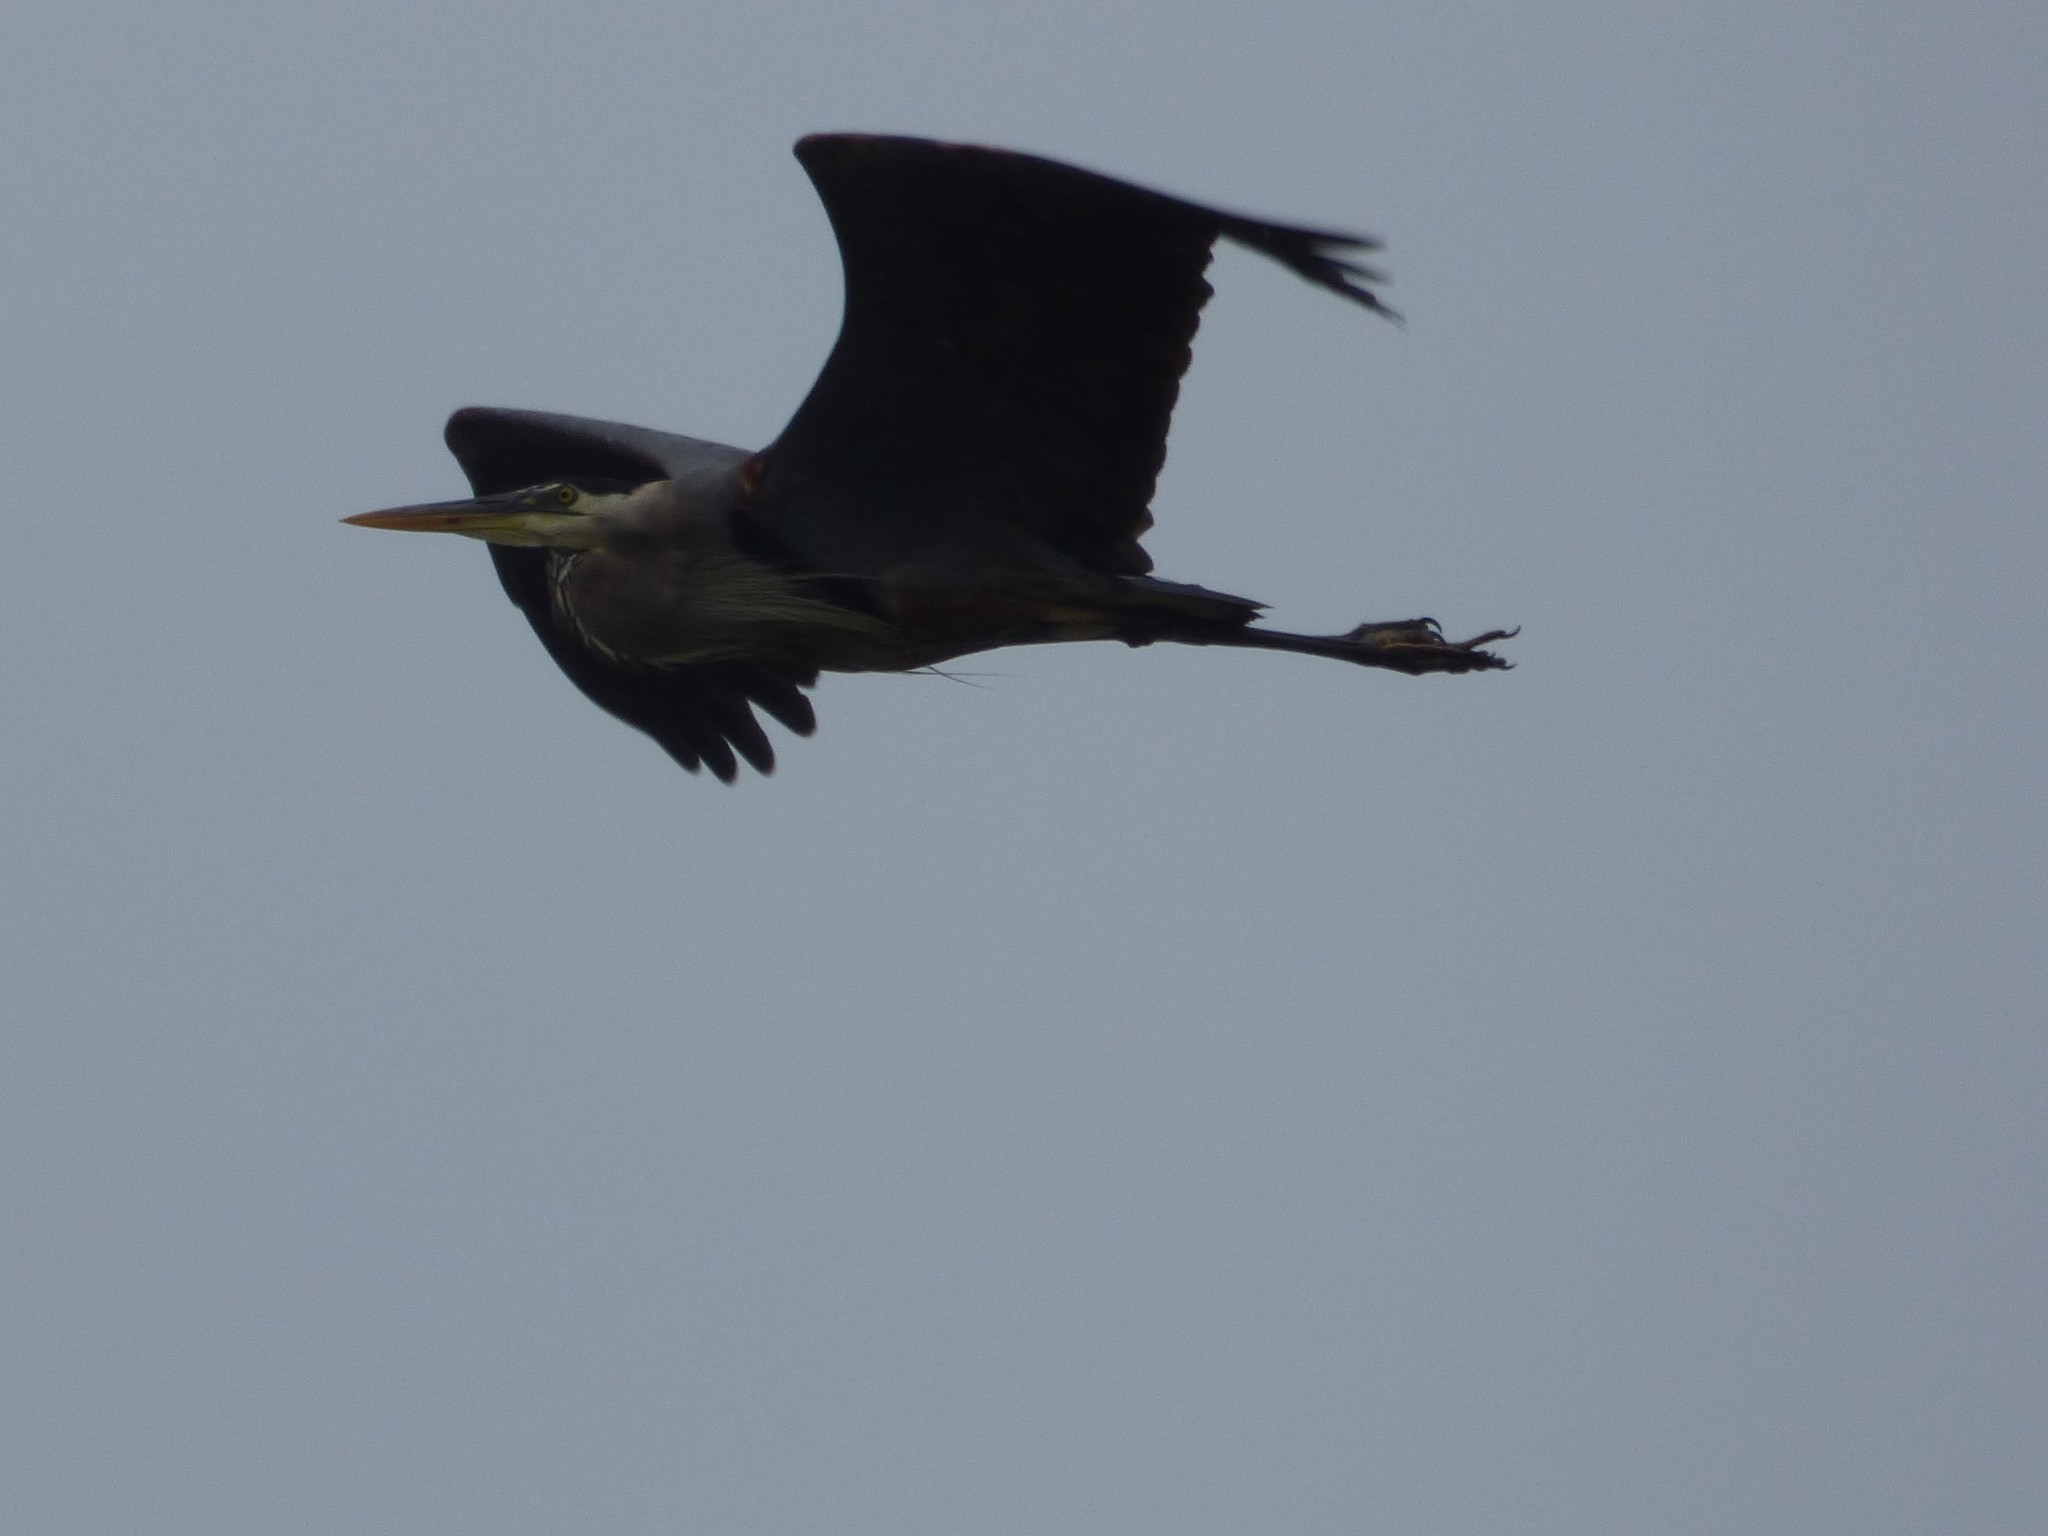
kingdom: Animalia
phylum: Chordata
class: Aves
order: Pelecaniformes
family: Ardeidae
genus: Ardea
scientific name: Ardea herodias
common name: Great blue heron
